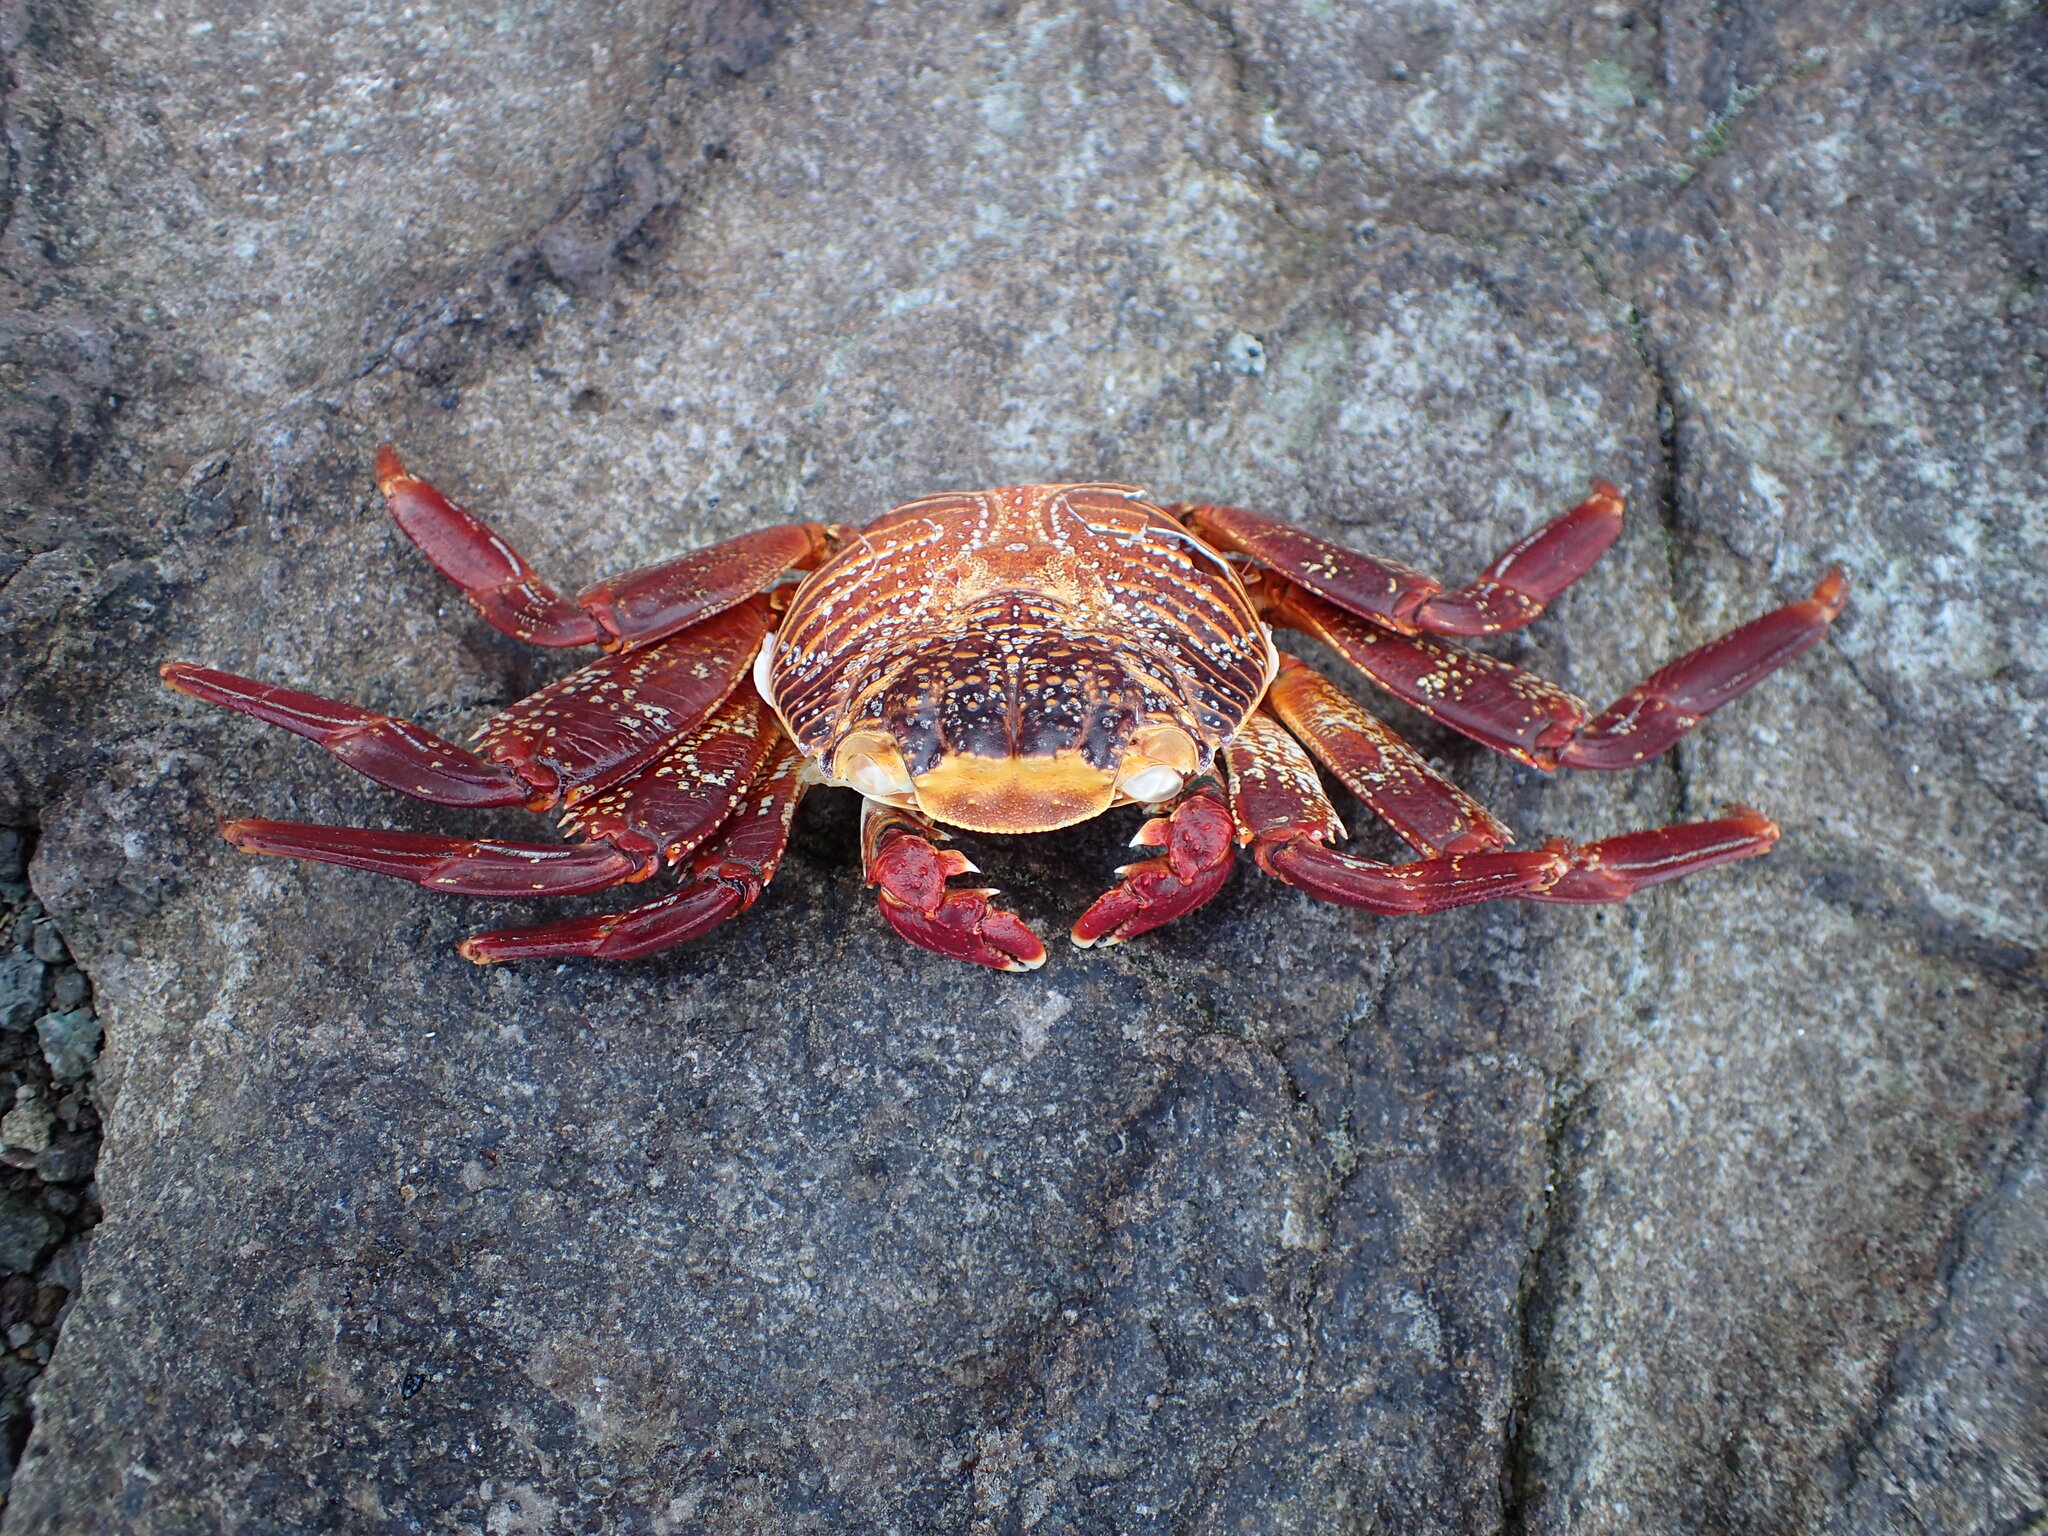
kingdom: Animalia
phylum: Arthropoda
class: Malacostraca
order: Decapoda
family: Grapsidae
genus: Grapsus
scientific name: Grapsus grapsus
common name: Sally lightfoot
